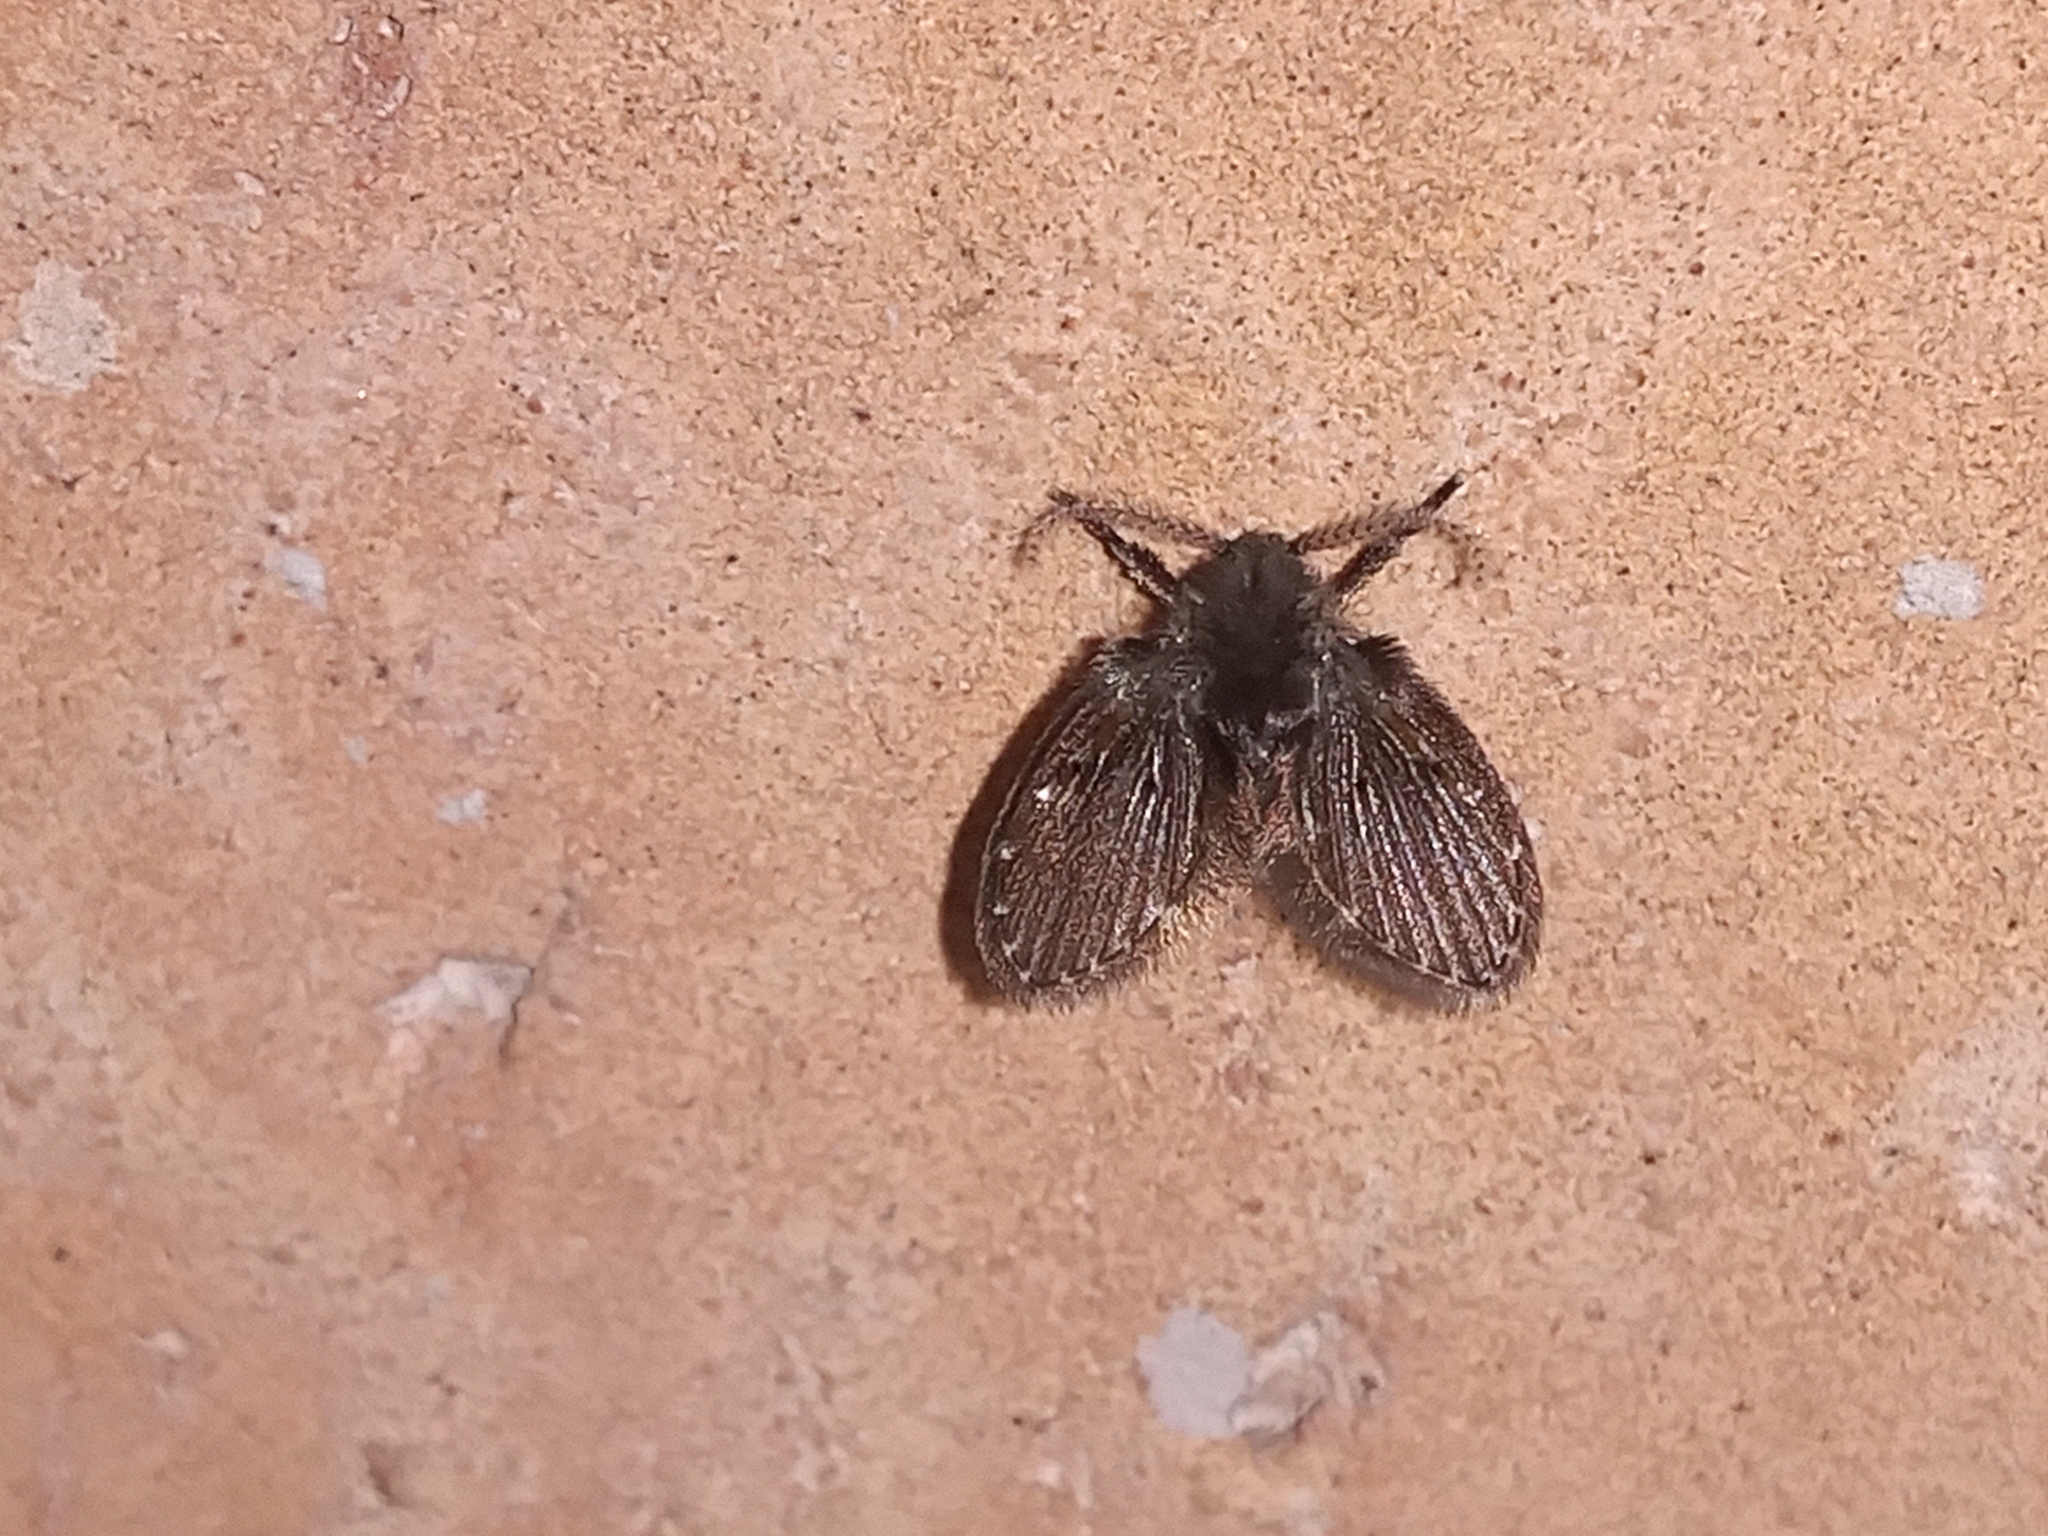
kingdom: Animalia
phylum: Arthropoda
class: Insecta
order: Diptera
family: Psychodidae
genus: Clogmia
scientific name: Clogmia albipunctatus
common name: White-spotted moth fly
